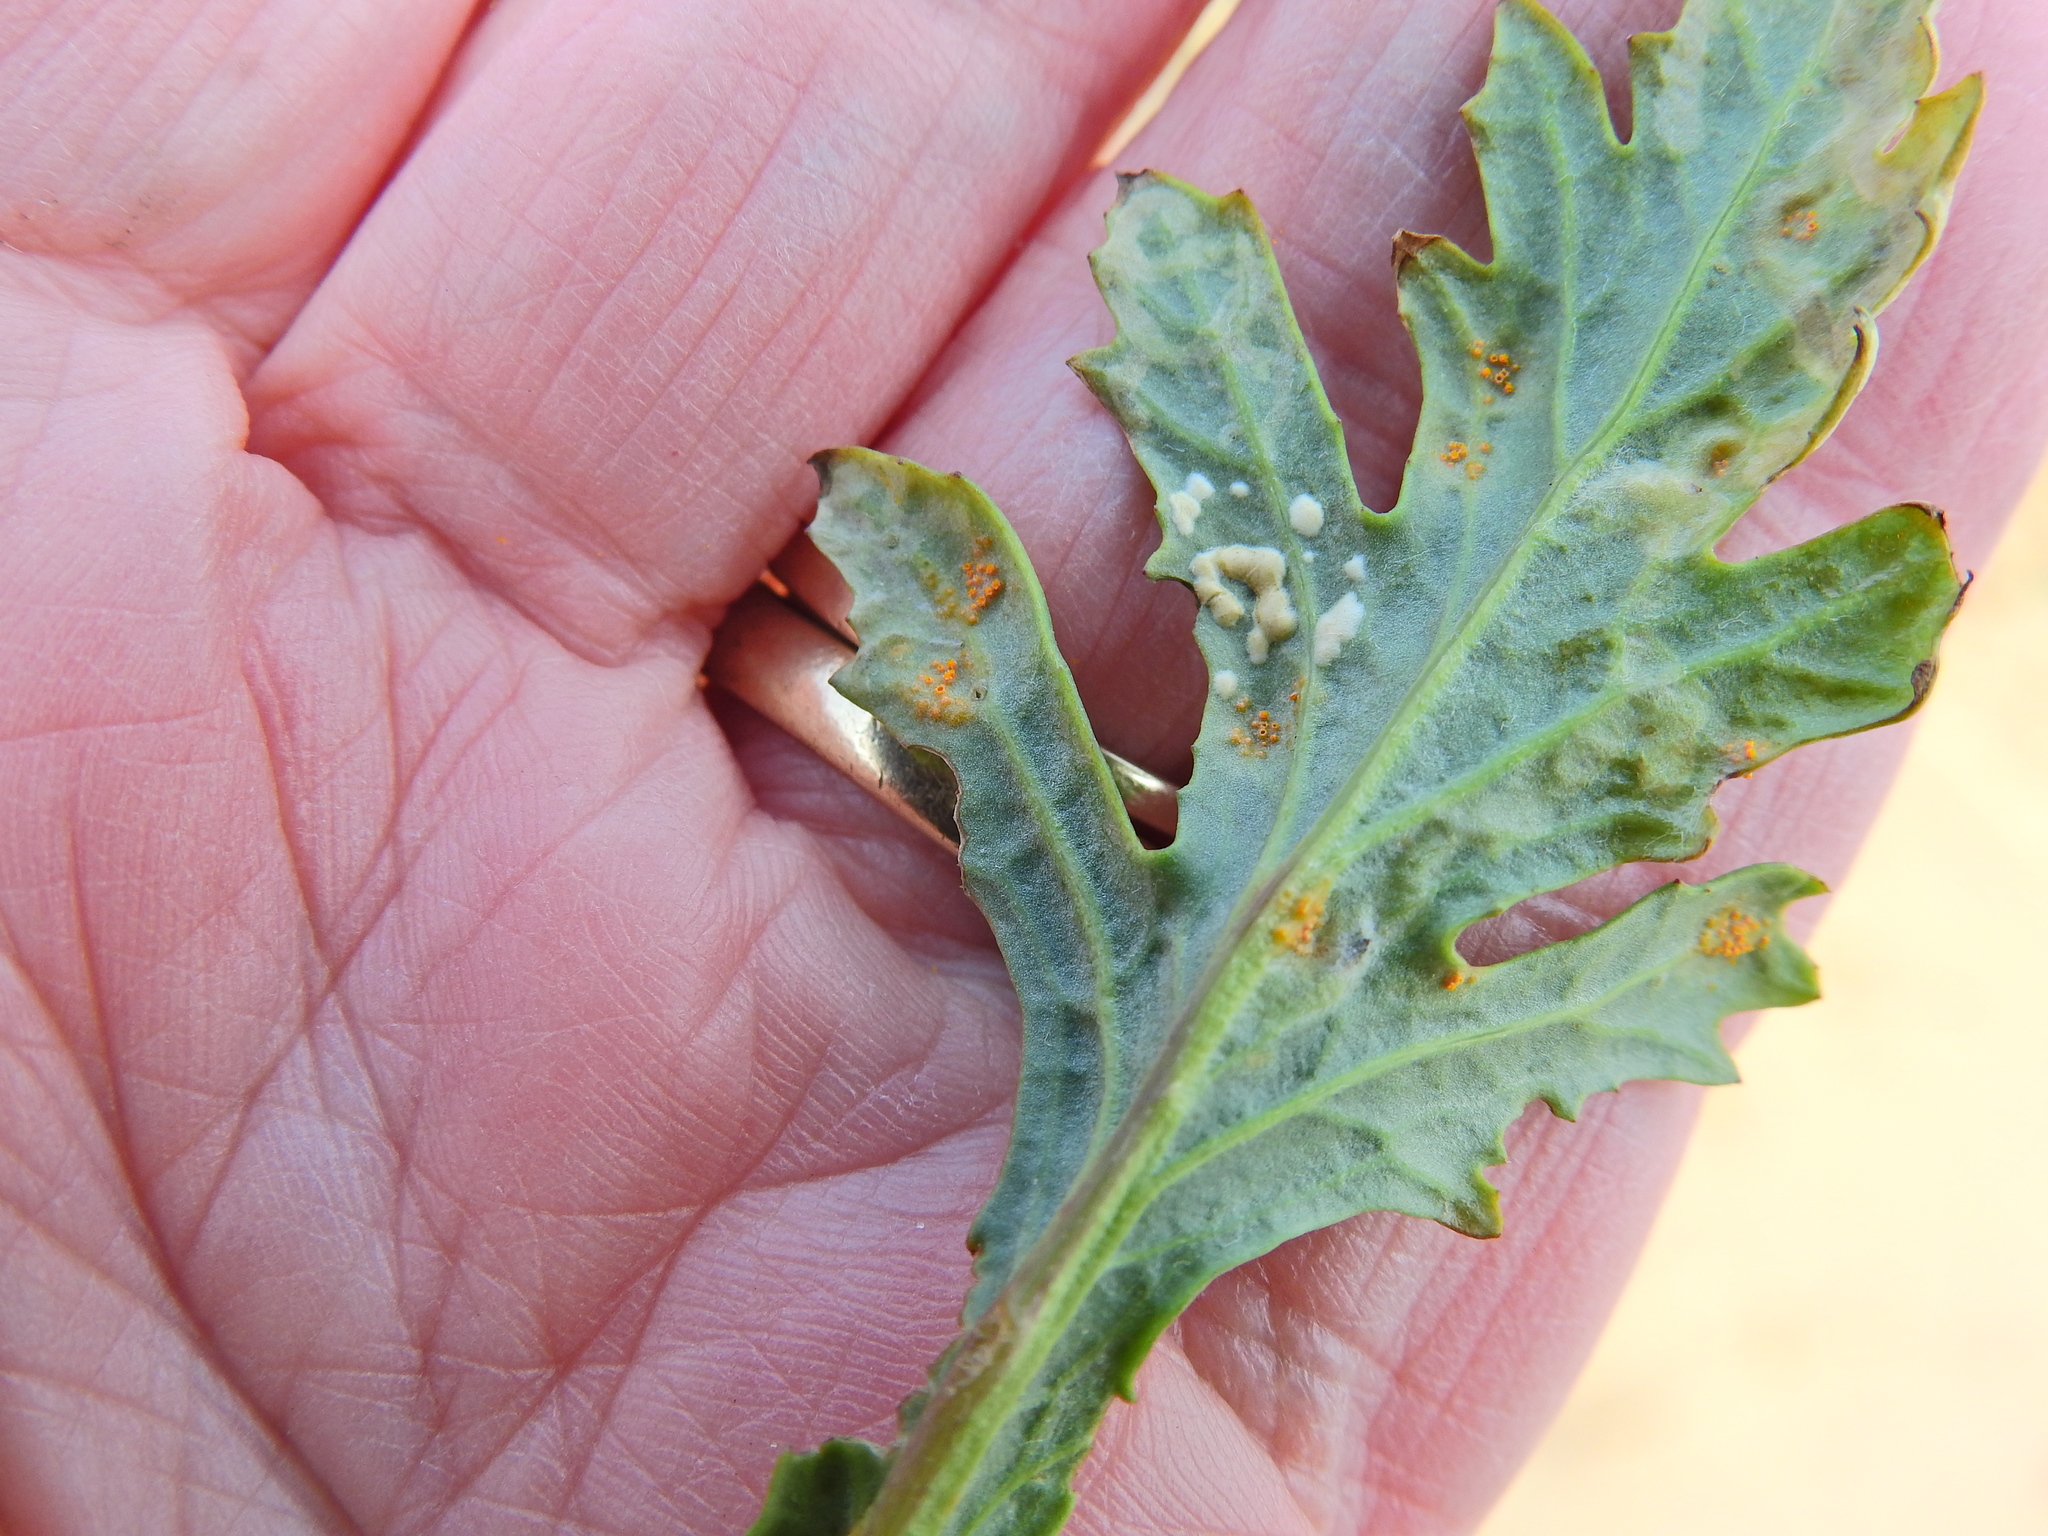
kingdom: Chromista
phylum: Oomycota
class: Peronosporea
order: Albuginales
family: Albuginaceae
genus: Pustula
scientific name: Pustula
